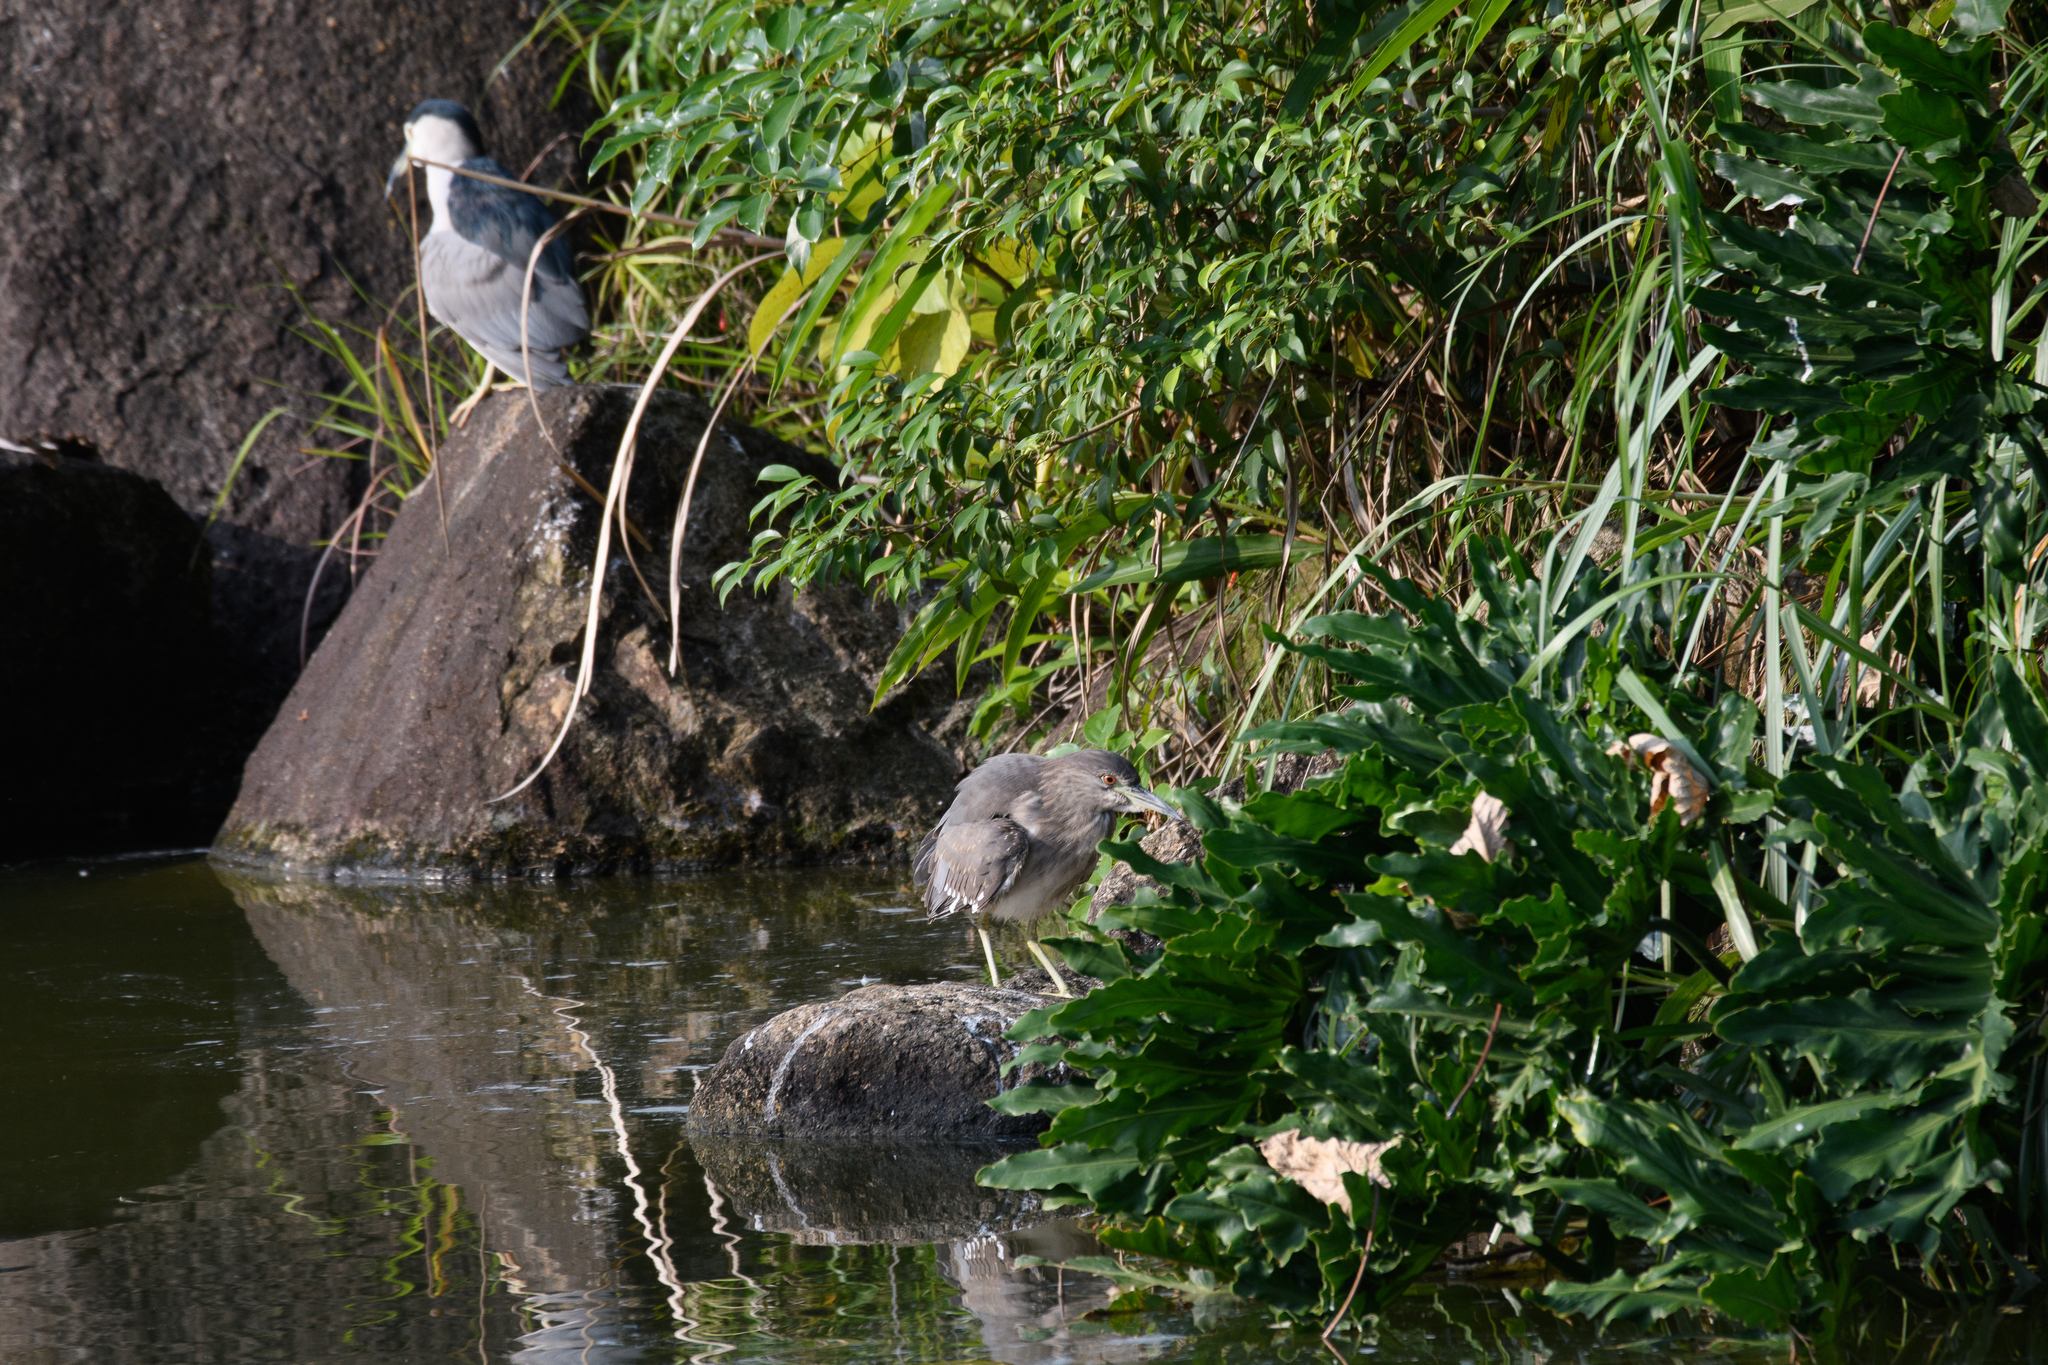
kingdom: Animalia
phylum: Chordata
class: Aves
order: Pelecaniformes
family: Ardeidae
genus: Nycticorax
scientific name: Nycticorax nycticorax
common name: Black-crowned night heron
